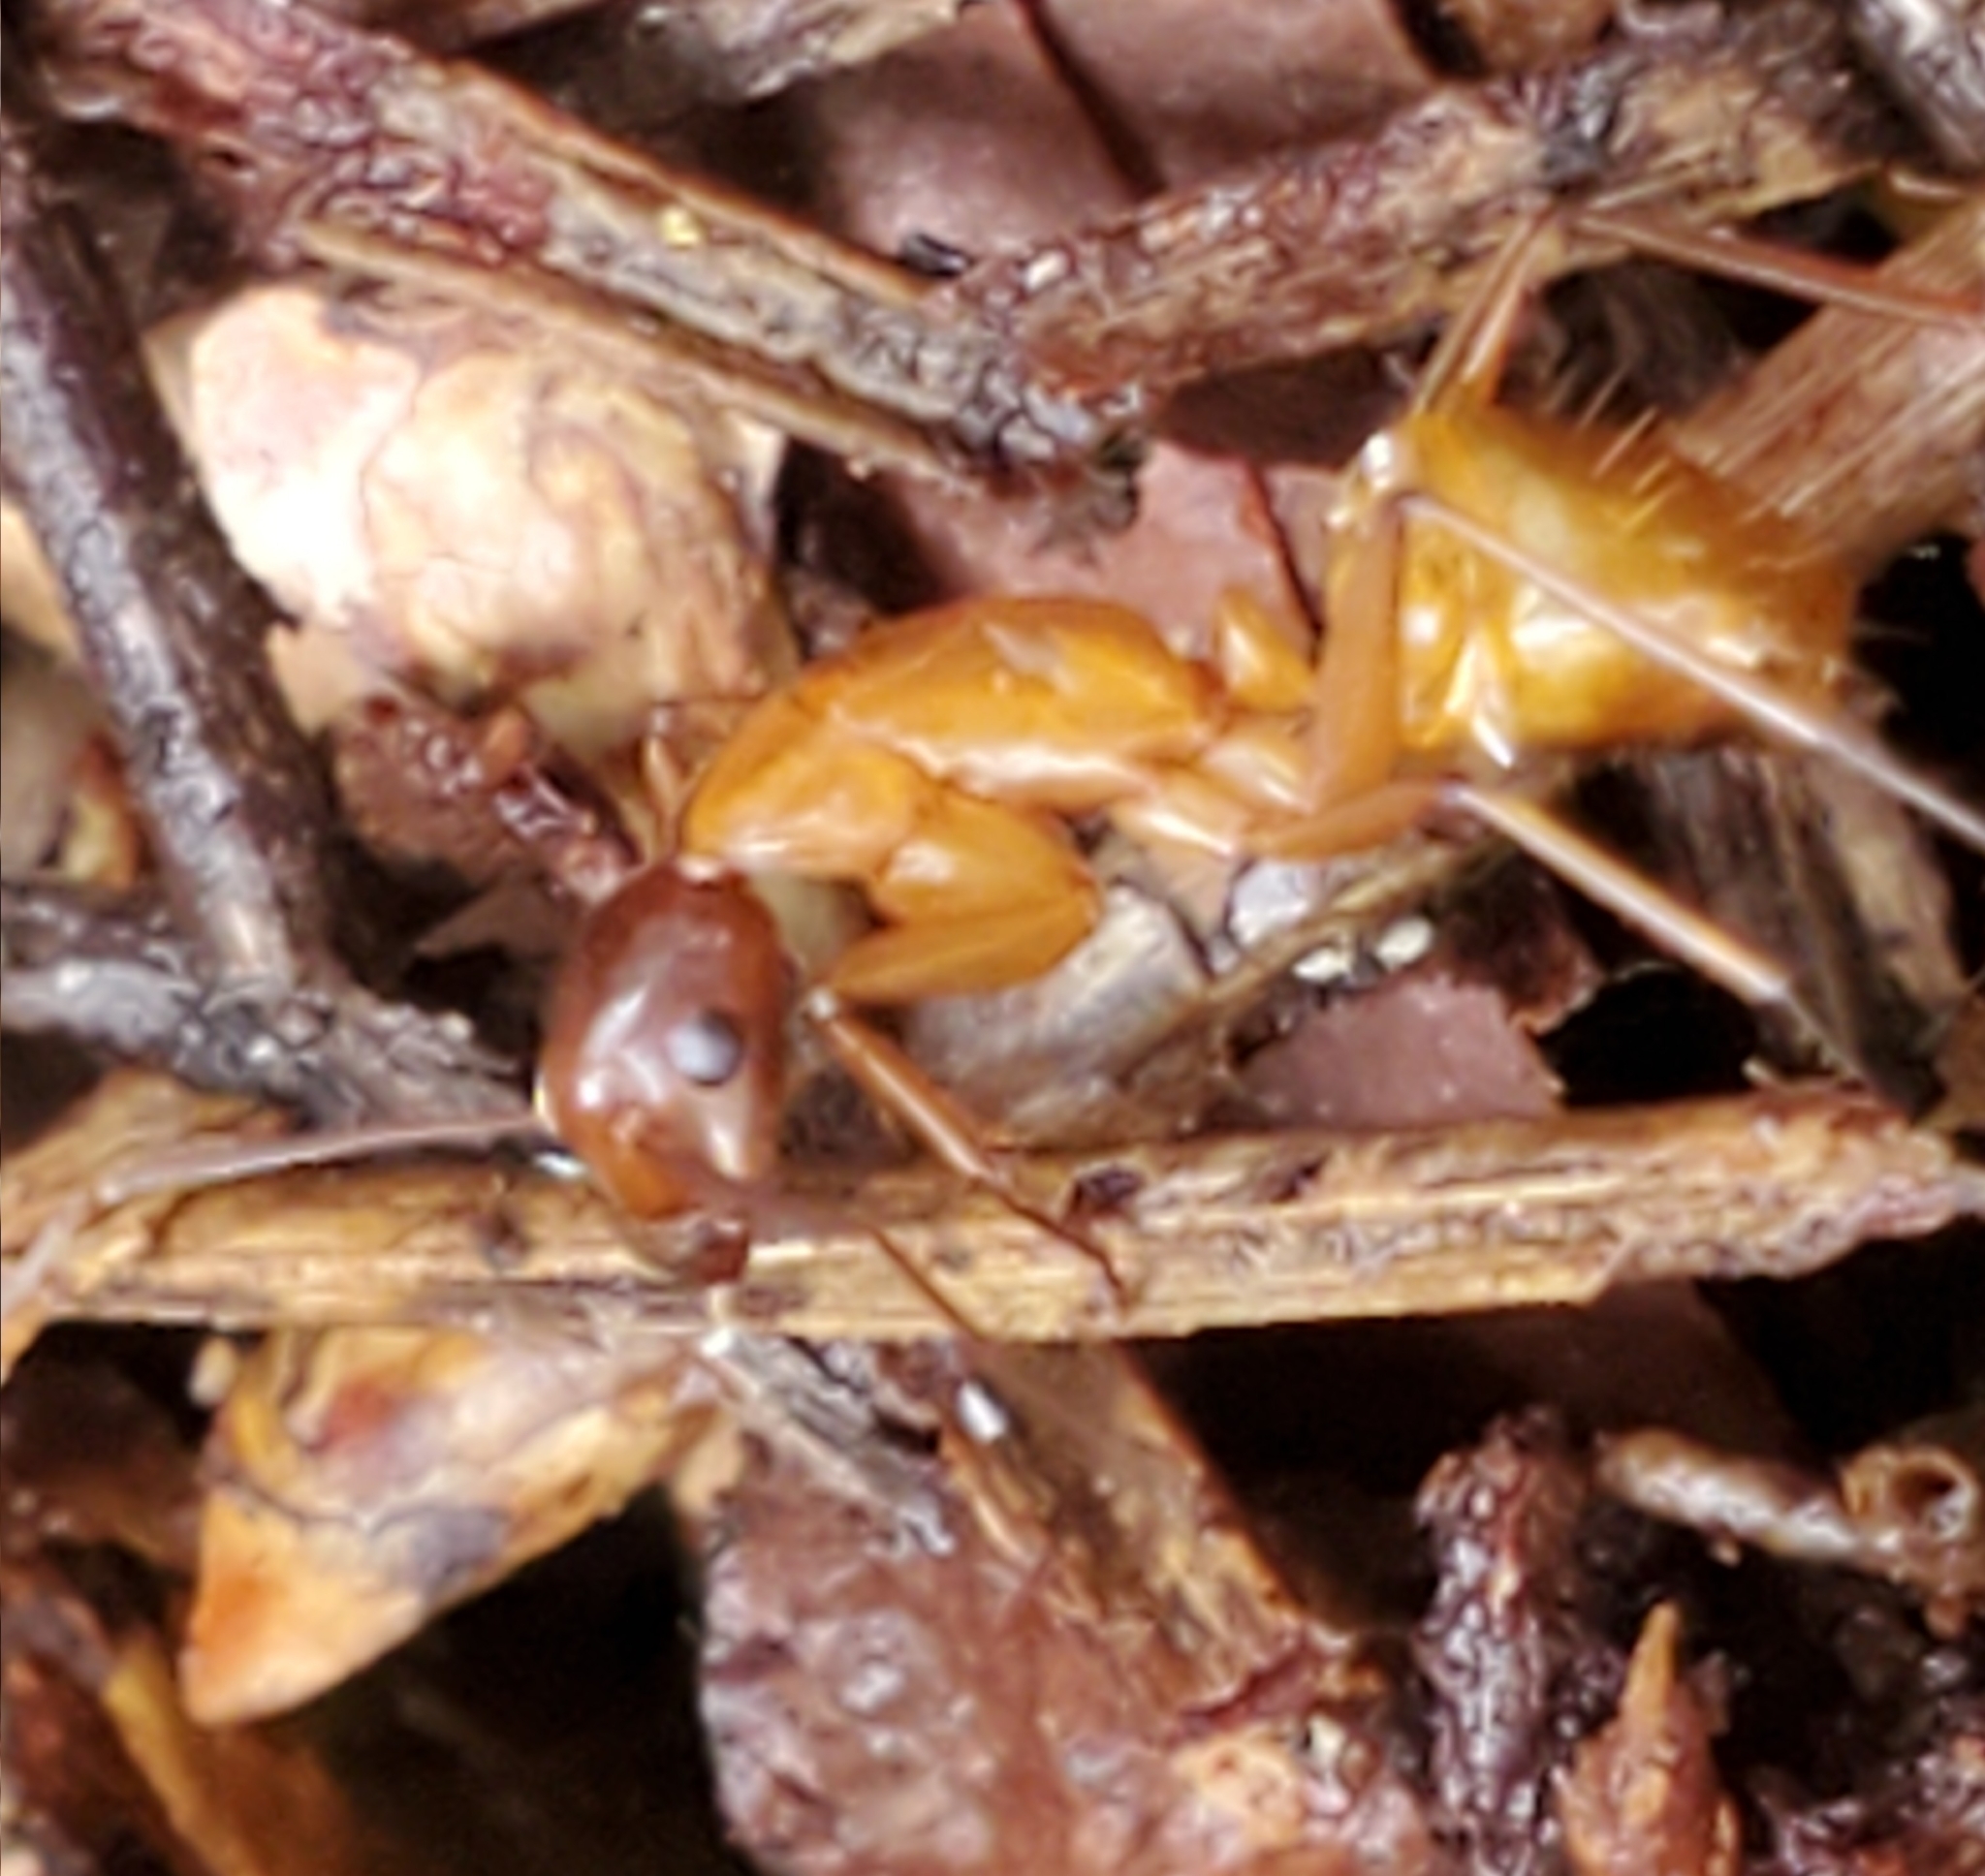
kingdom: Animalia
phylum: Arthropoda
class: Insecta
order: Hymenoptera
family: Formicidae
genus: Camponotus
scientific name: Camponotus castaneus
